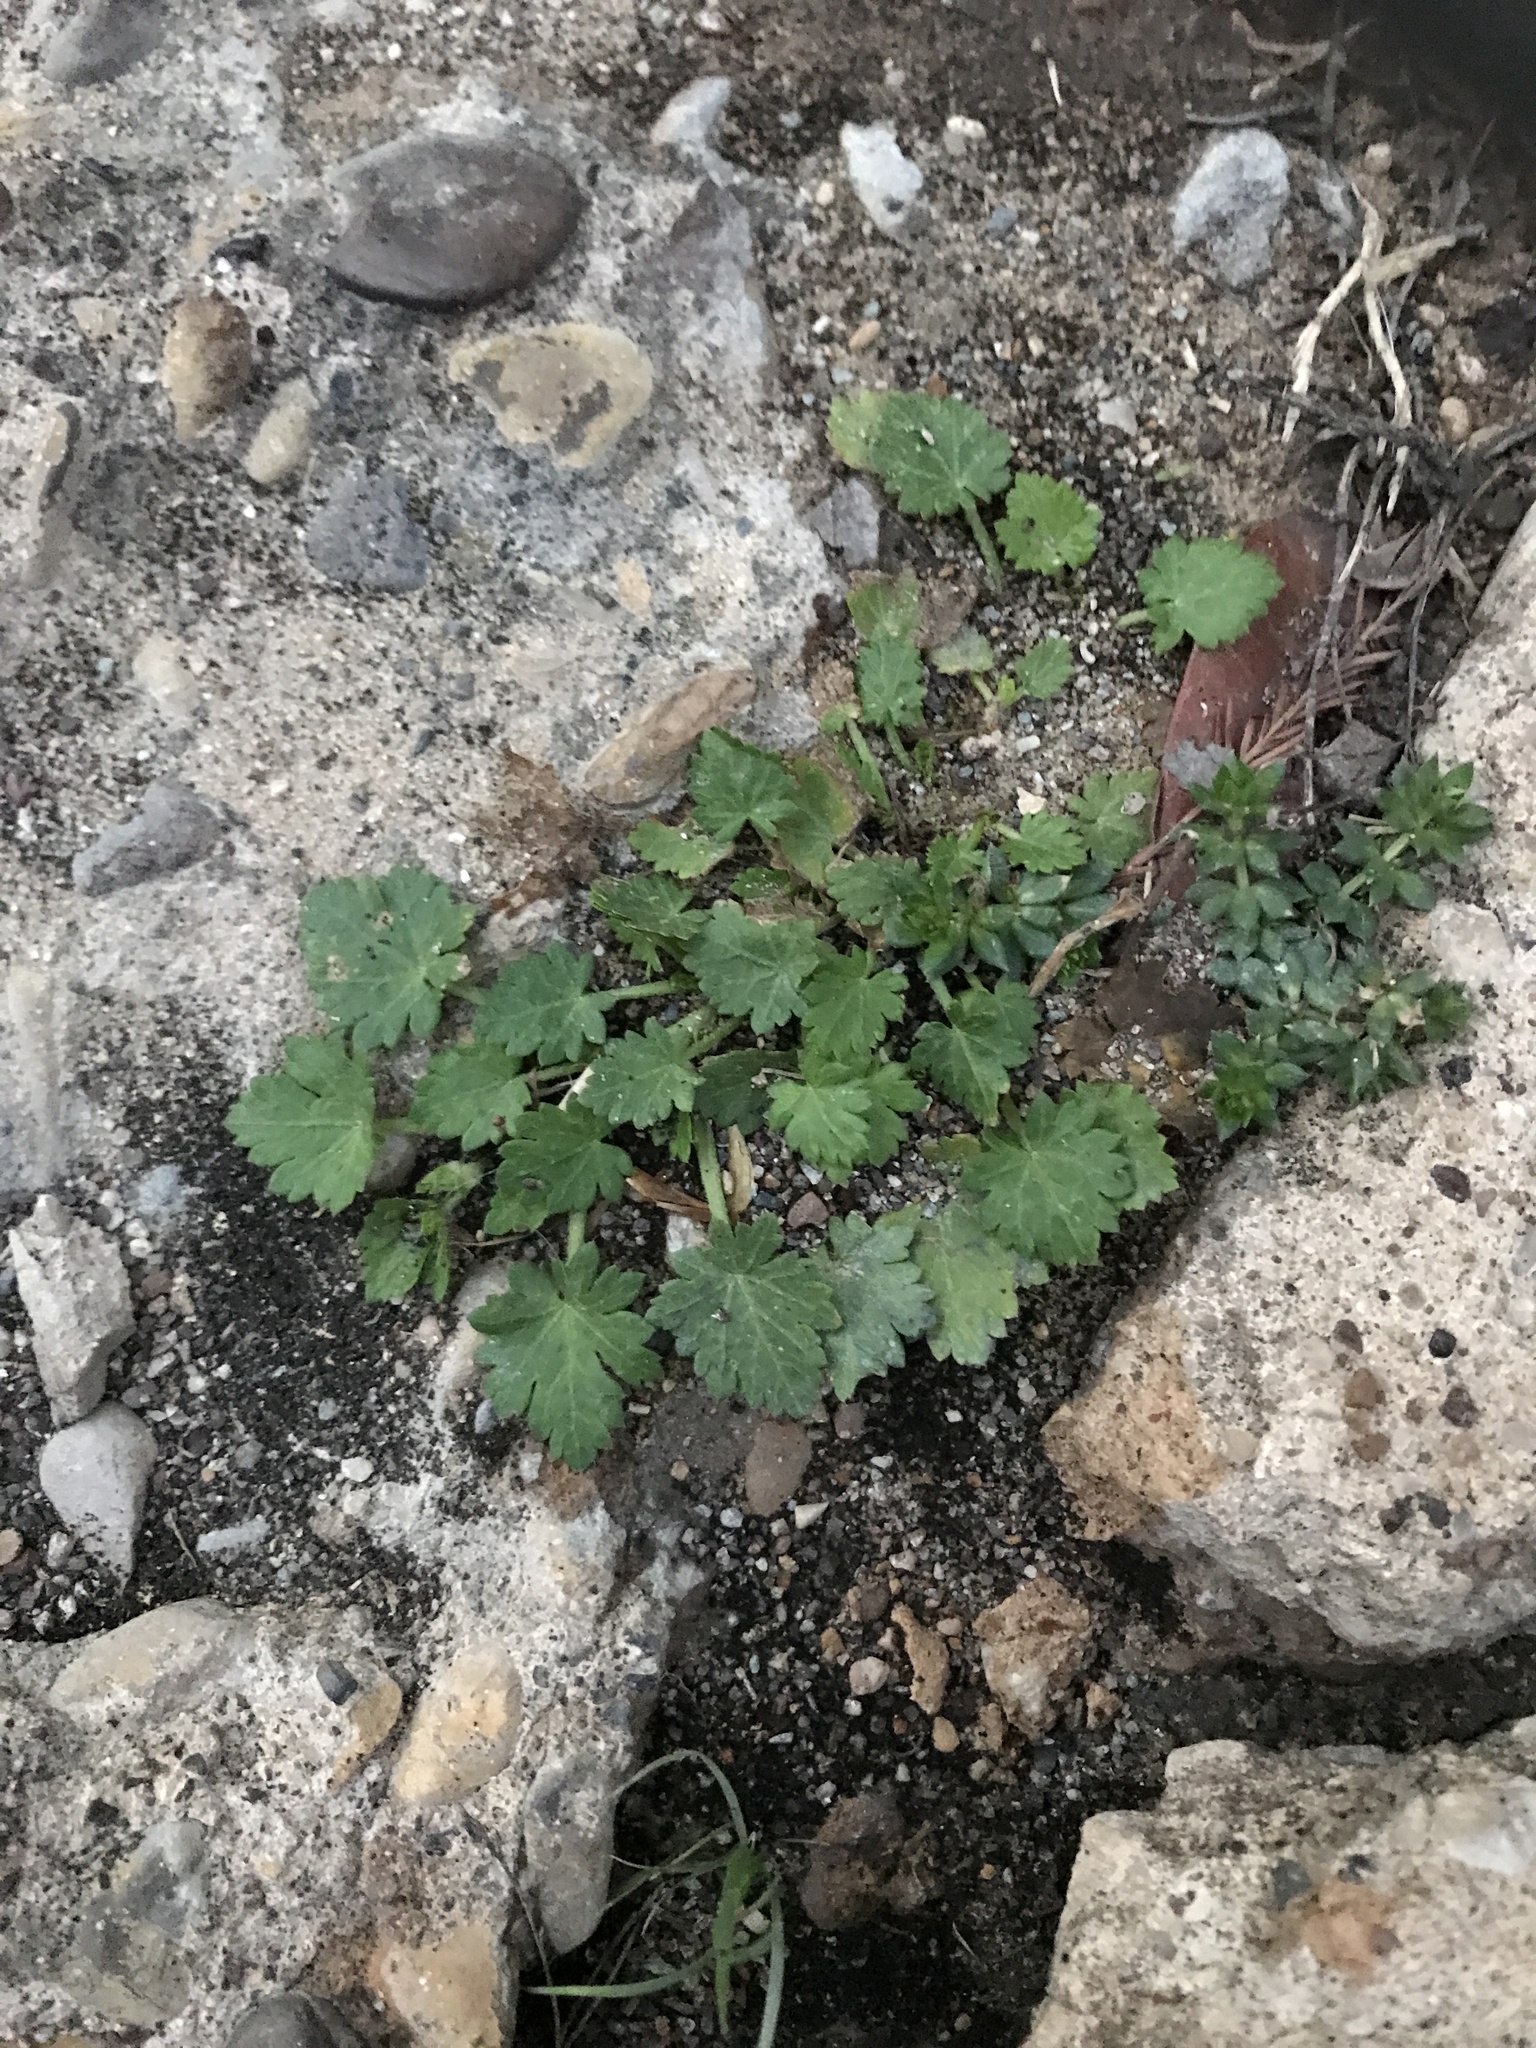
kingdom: Plantae
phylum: Tracheophyta
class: Magnoliopsida
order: Malvales
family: Malvaceae
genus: Modiola
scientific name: Modiola caroliniana
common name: Carolina bristlemallow
